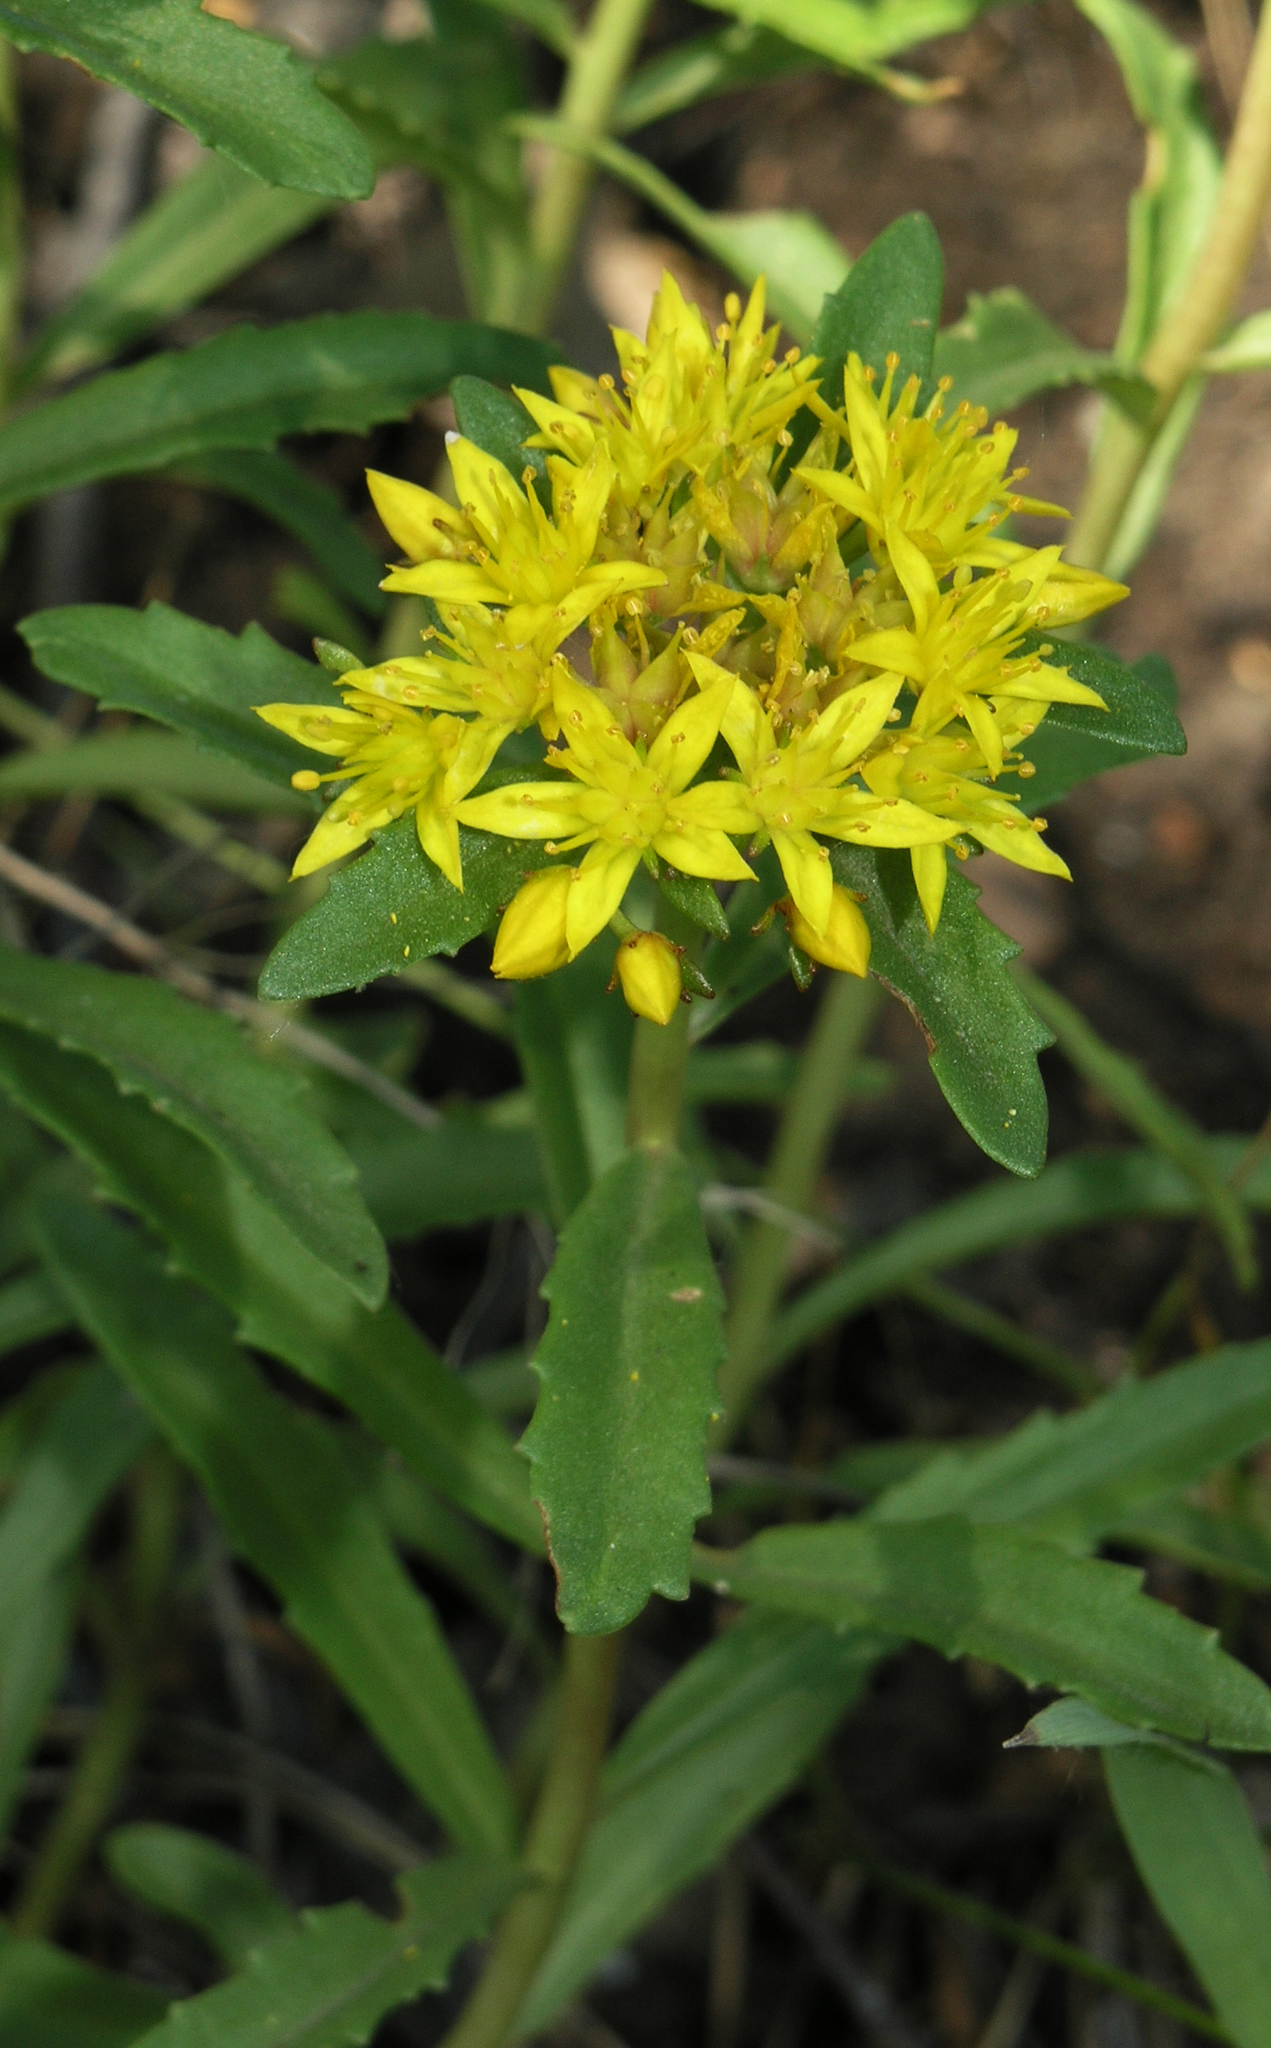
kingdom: Plantae
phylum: Tracheophyta
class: Magnoliopsida
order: Saxifragales
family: Crassulaceae
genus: Phedimus
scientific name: Phedimus aizoon
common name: Orpin aizoon
